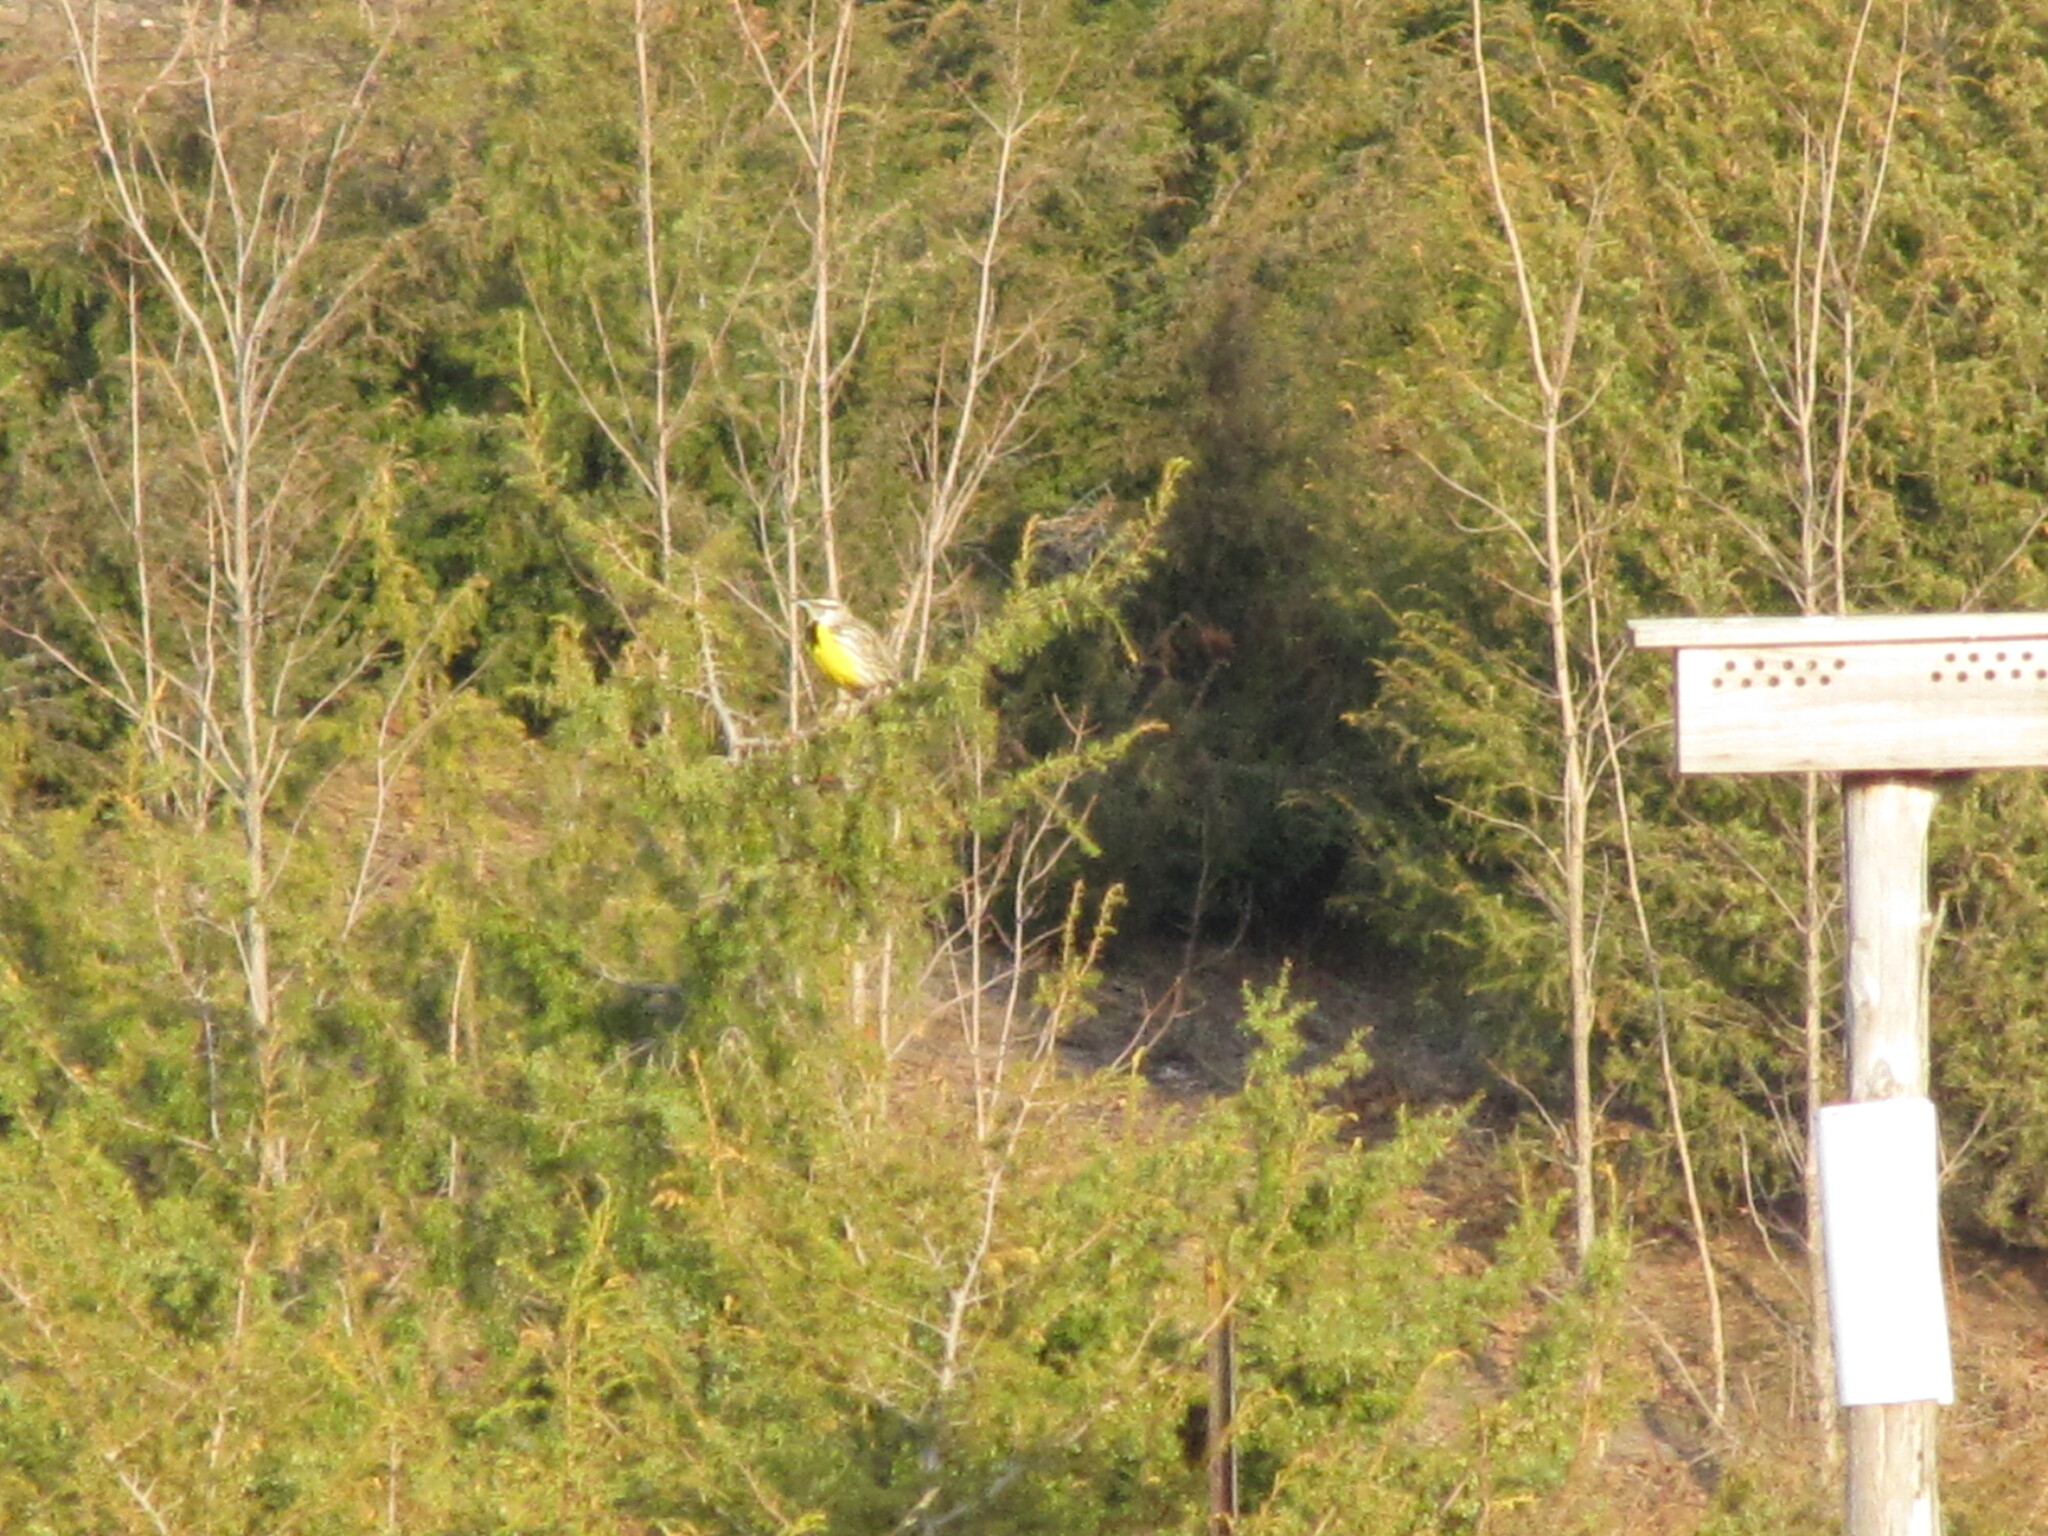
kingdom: Animalia
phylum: Chordata
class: Aves
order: Passeriformes
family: Icteridae
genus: Sturnella
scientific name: Sturnella magna
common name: Eastern meadowlark
